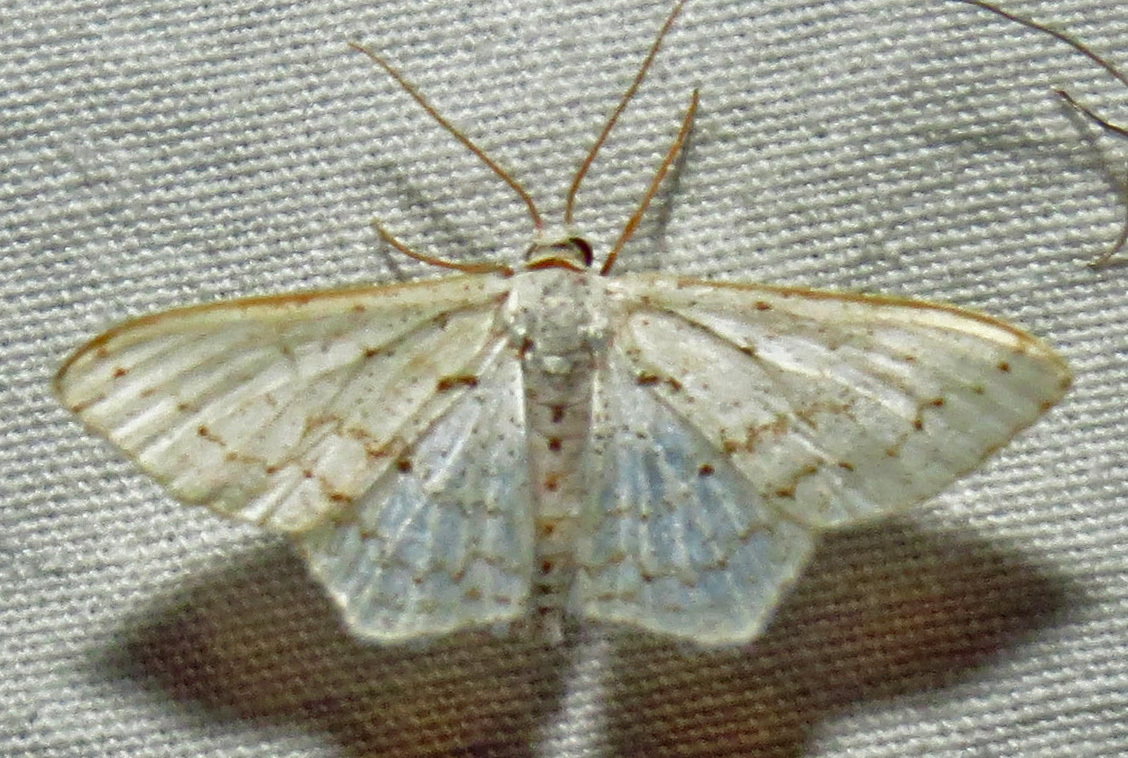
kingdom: Animalia
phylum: Arthropoda
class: Insecta
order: Lepidoptera
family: Geometridae
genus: Idaea
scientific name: Idaea tacturata
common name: Dot-lined wave
